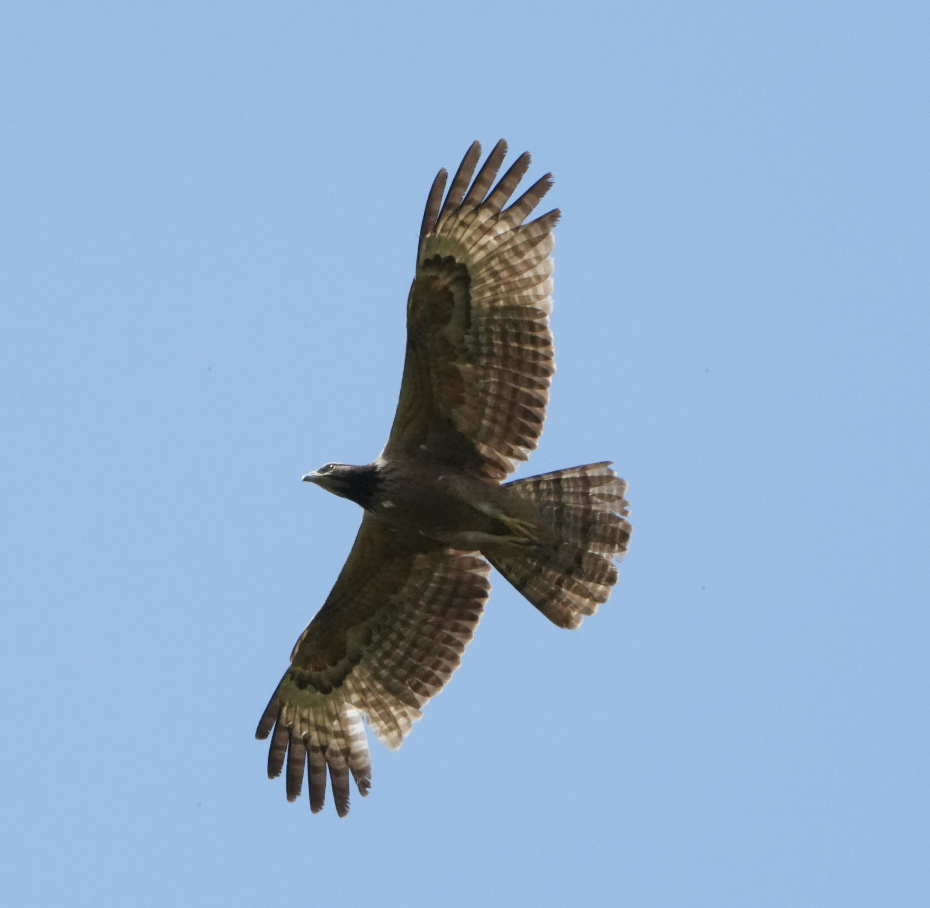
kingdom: Animalia
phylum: Chordata
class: Aves
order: Accipitriformes
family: Accipitridae
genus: Pernis
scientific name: Pernis ptilorhynchus
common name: Crested honey buzzard
